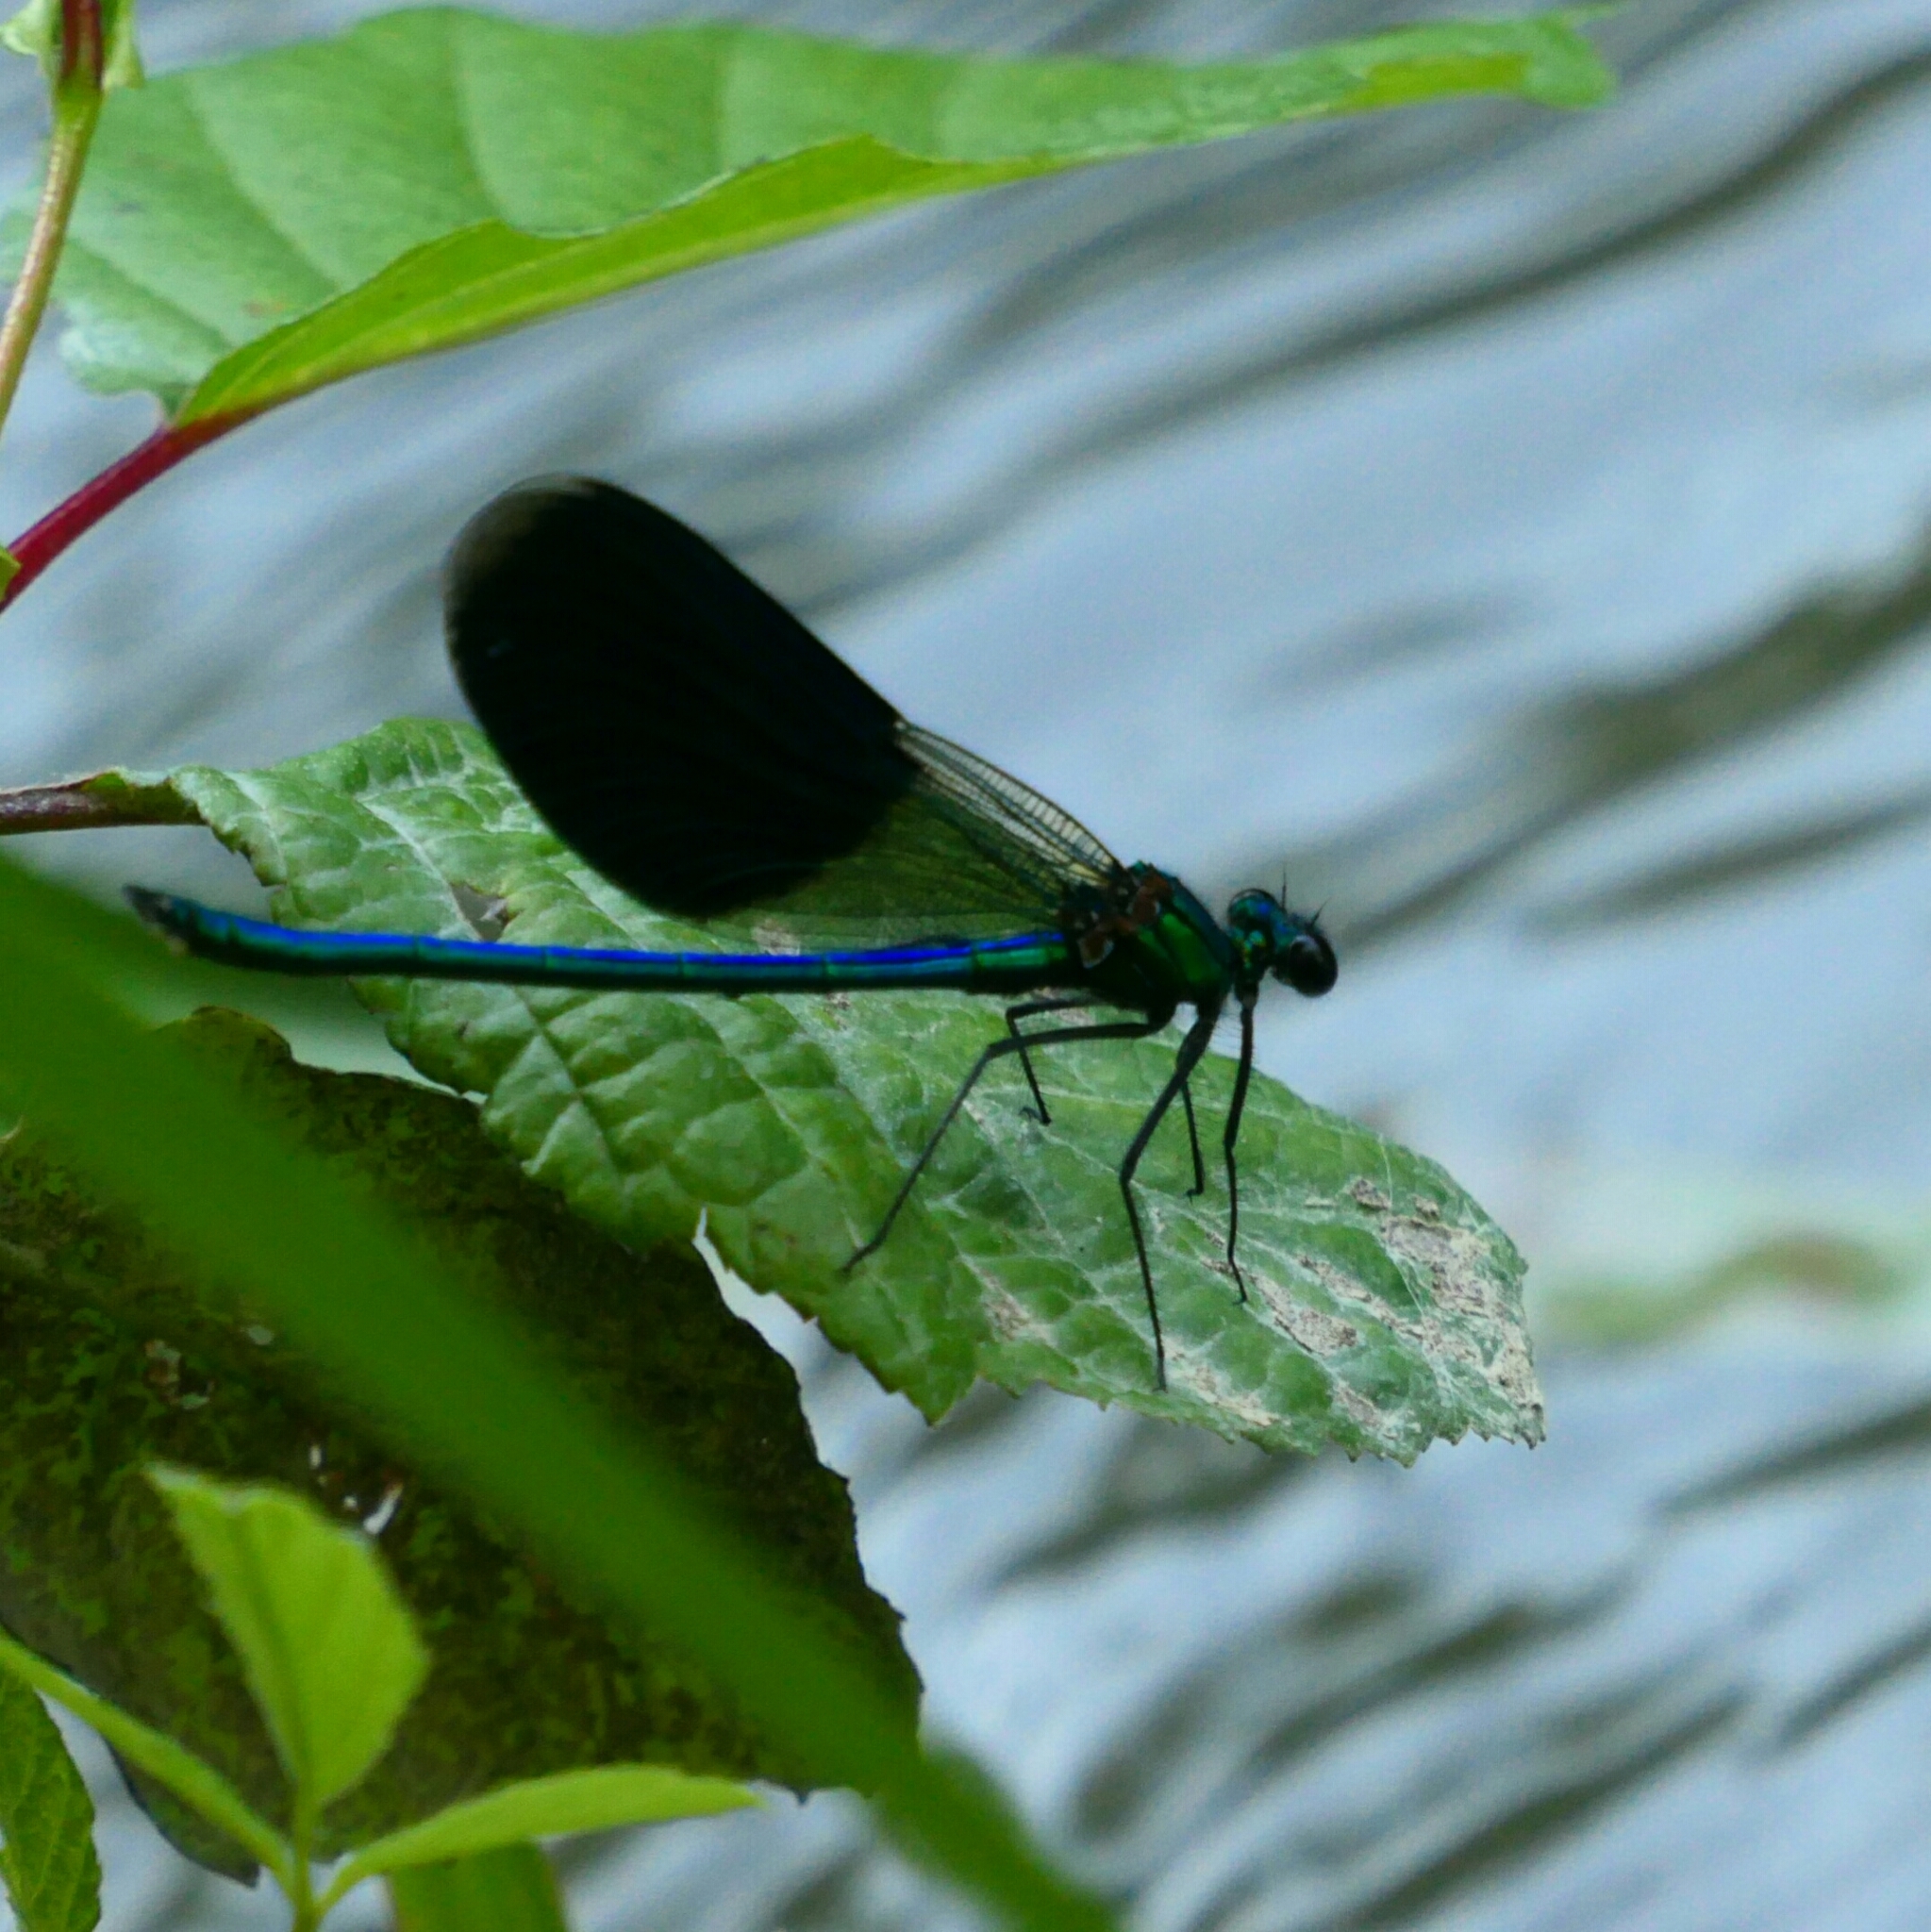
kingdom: Animalia
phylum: Arthropoda
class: Insecta
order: Odonata
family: Calopterygidae
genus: Calopteryx
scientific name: Calopteryx splendens
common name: Banded demoiselle
